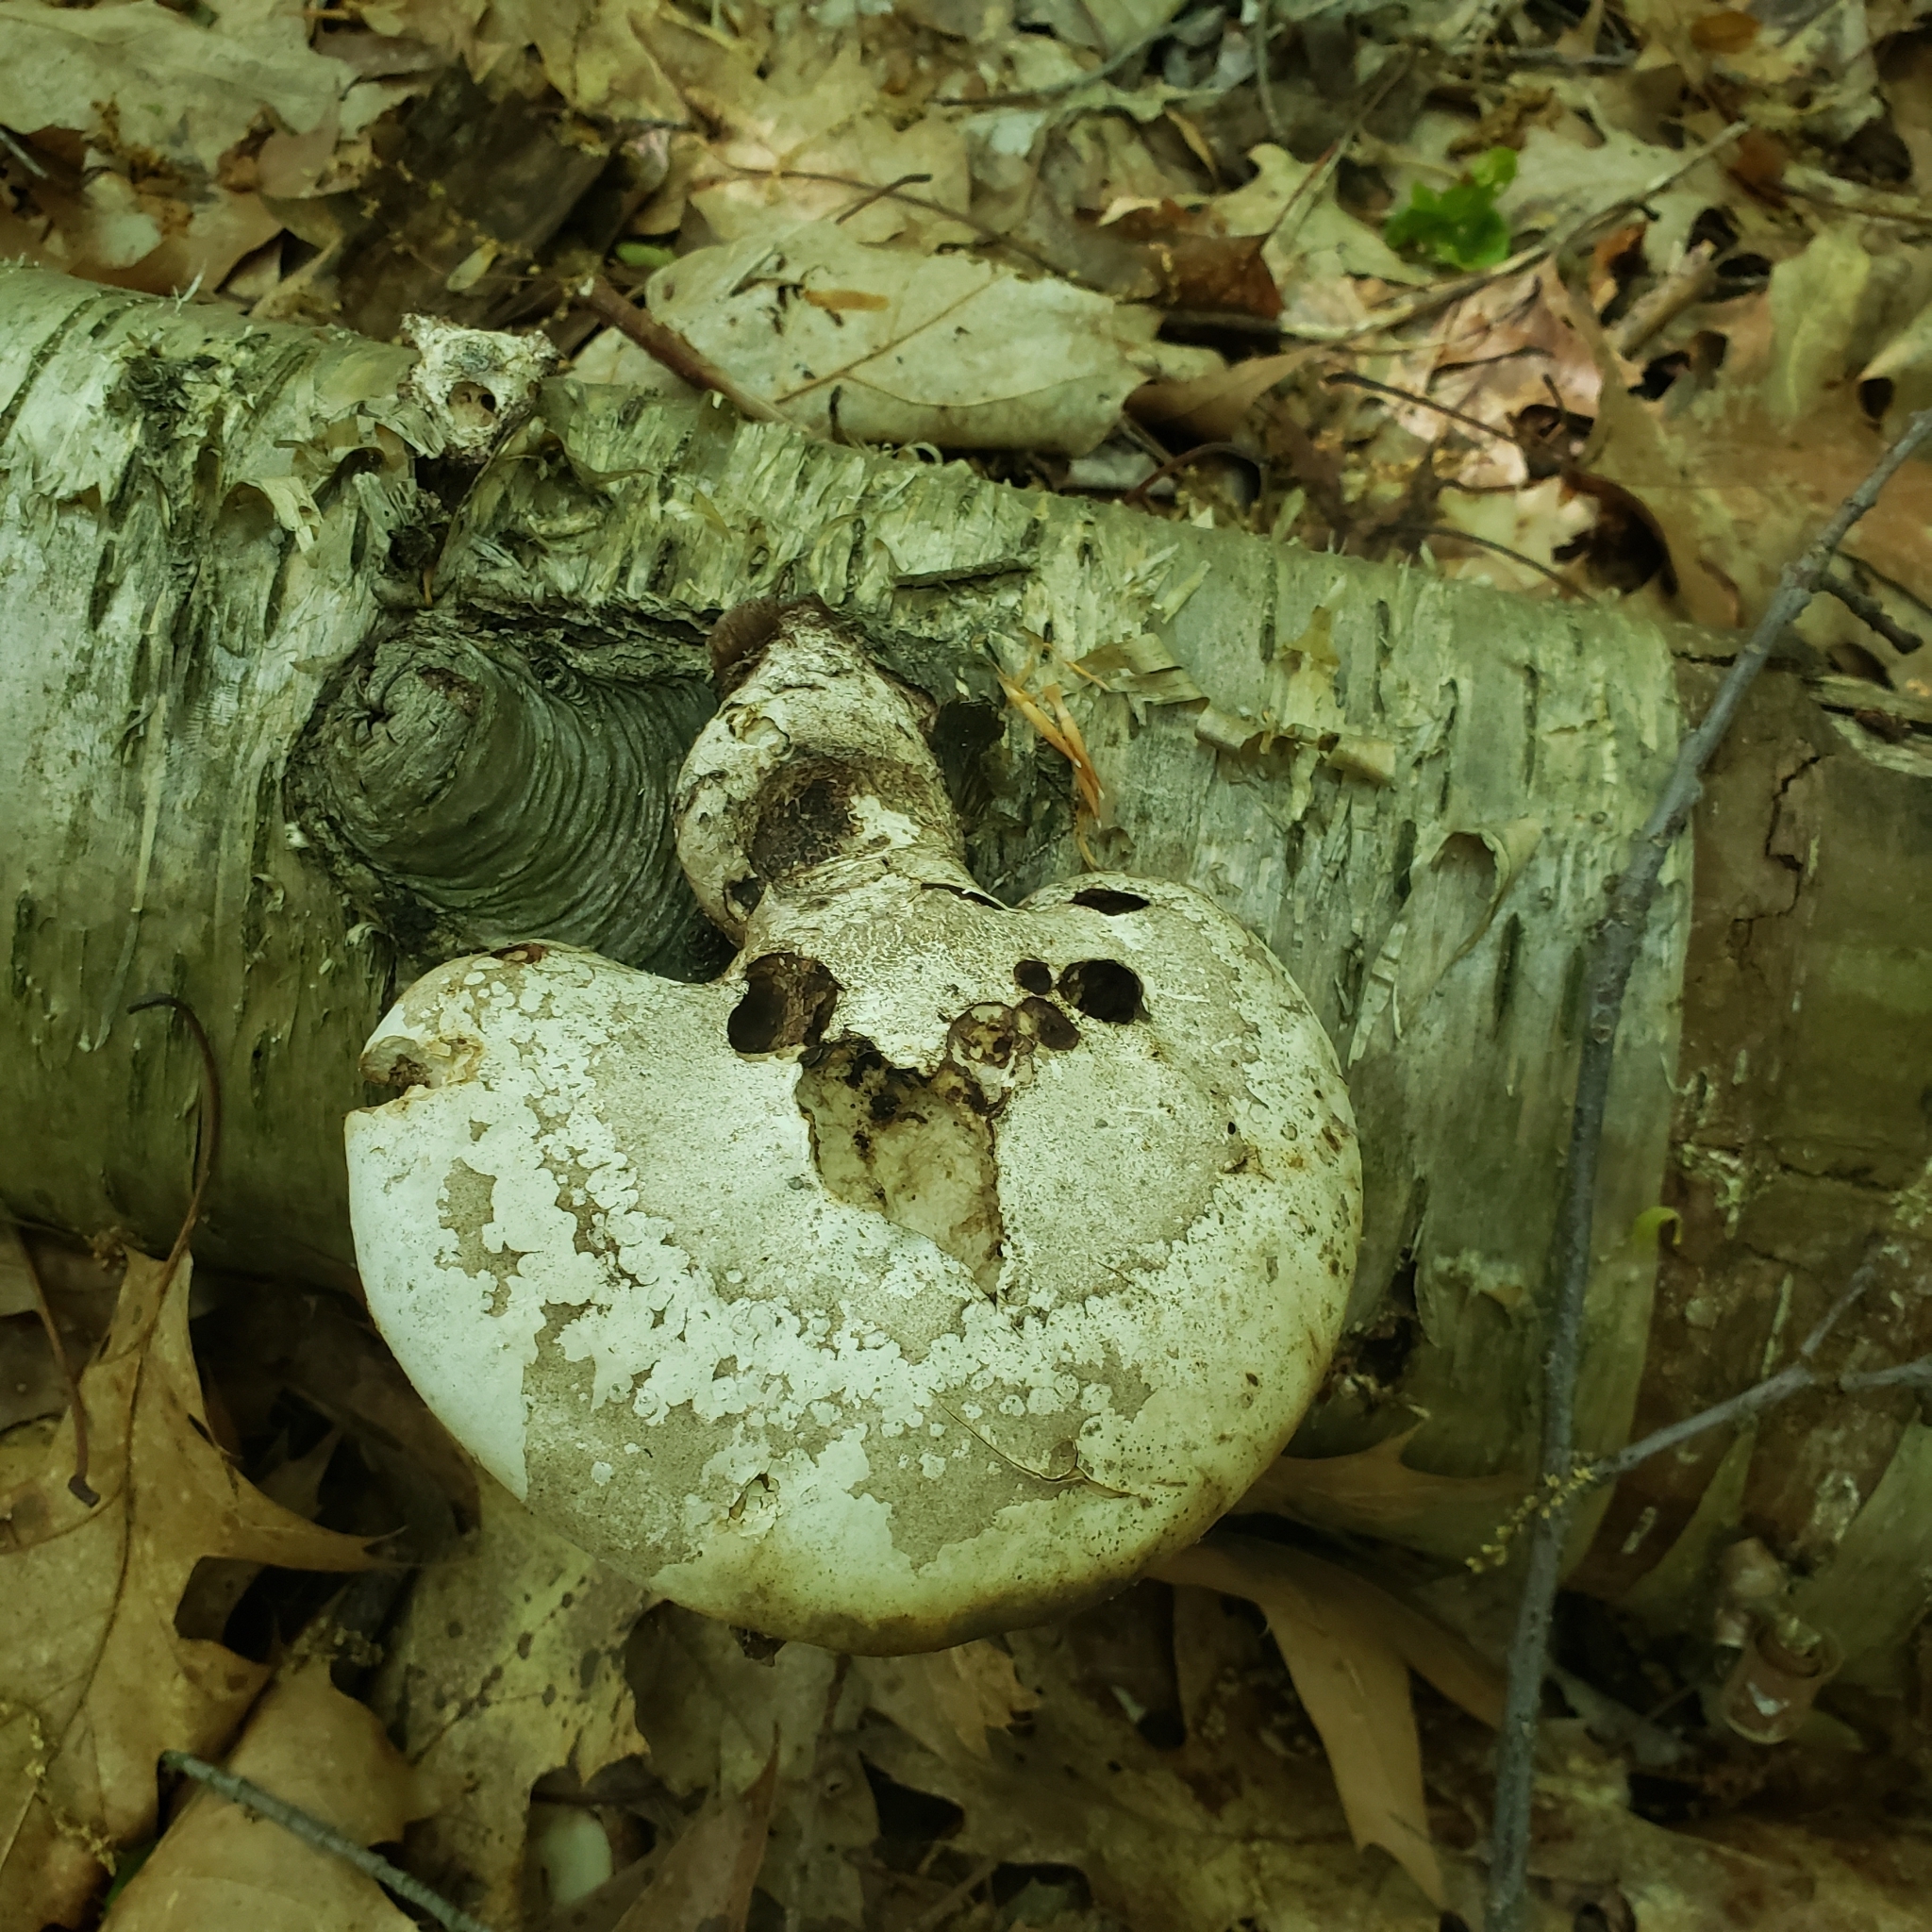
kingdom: Fungi
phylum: Basidiomycota
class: Agaricomycetes
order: Polyporales
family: Fomitopsidaceae
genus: Fomitopsis
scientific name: Fomitopsis betulina
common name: Birch polypore
